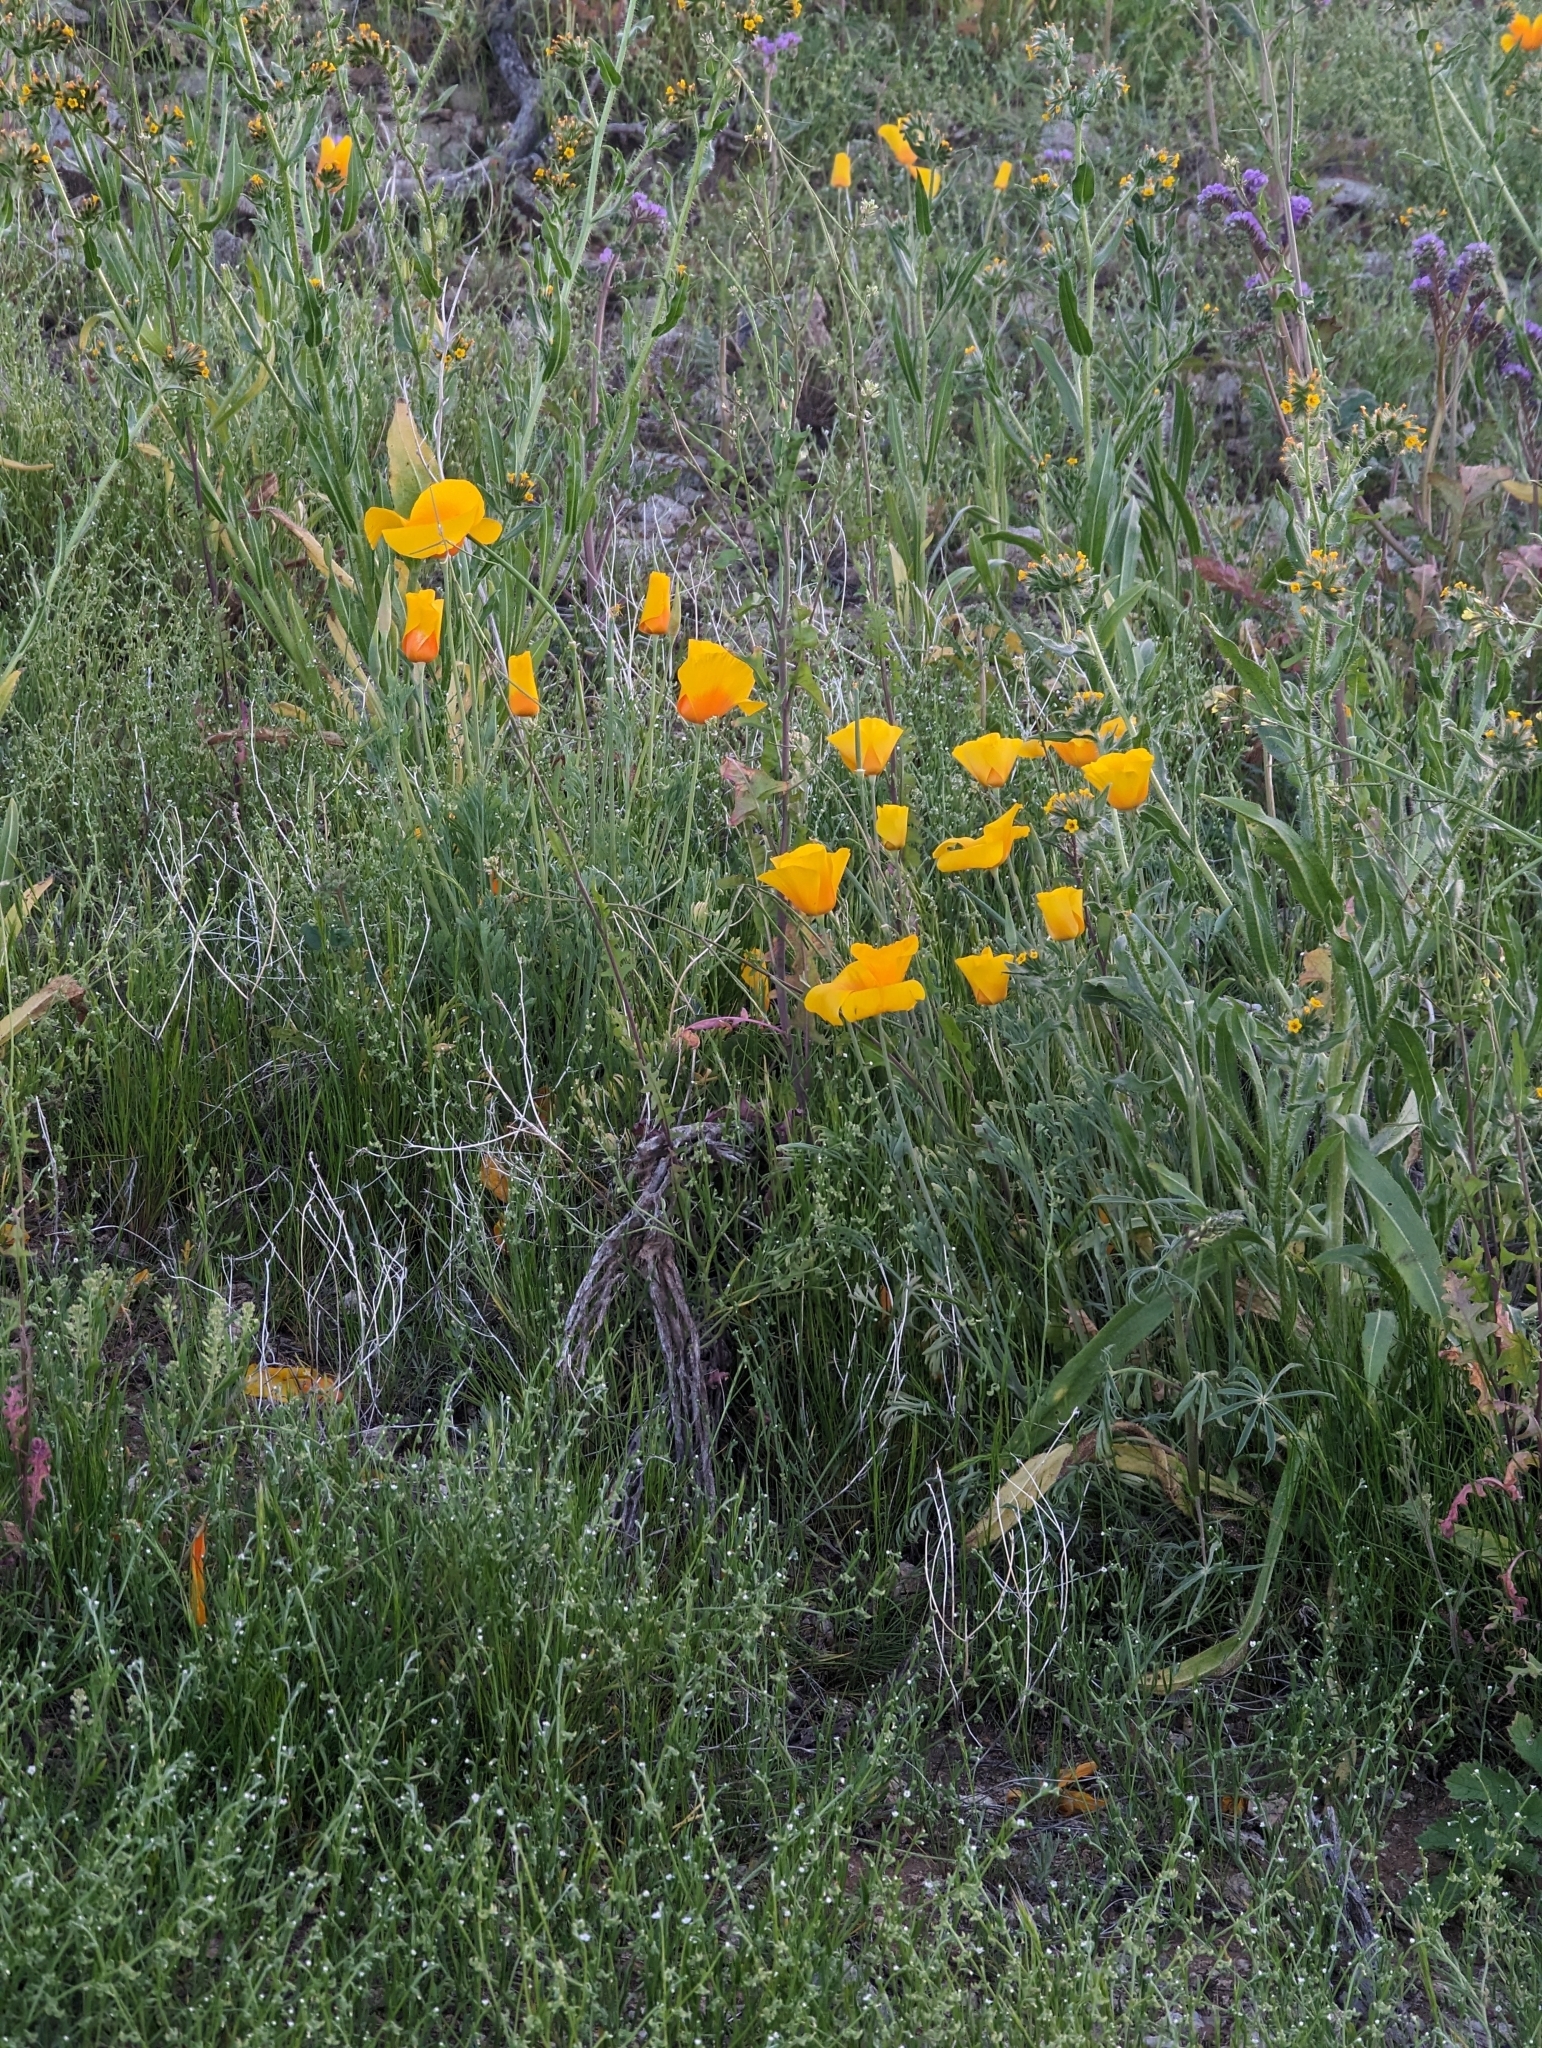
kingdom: Plantae
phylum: Tracheophyta
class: Magnoliopsida
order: Ranunculales
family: Papaveraceae
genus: Eschscholzia
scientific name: Eschscholzia californica
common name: California poppy
